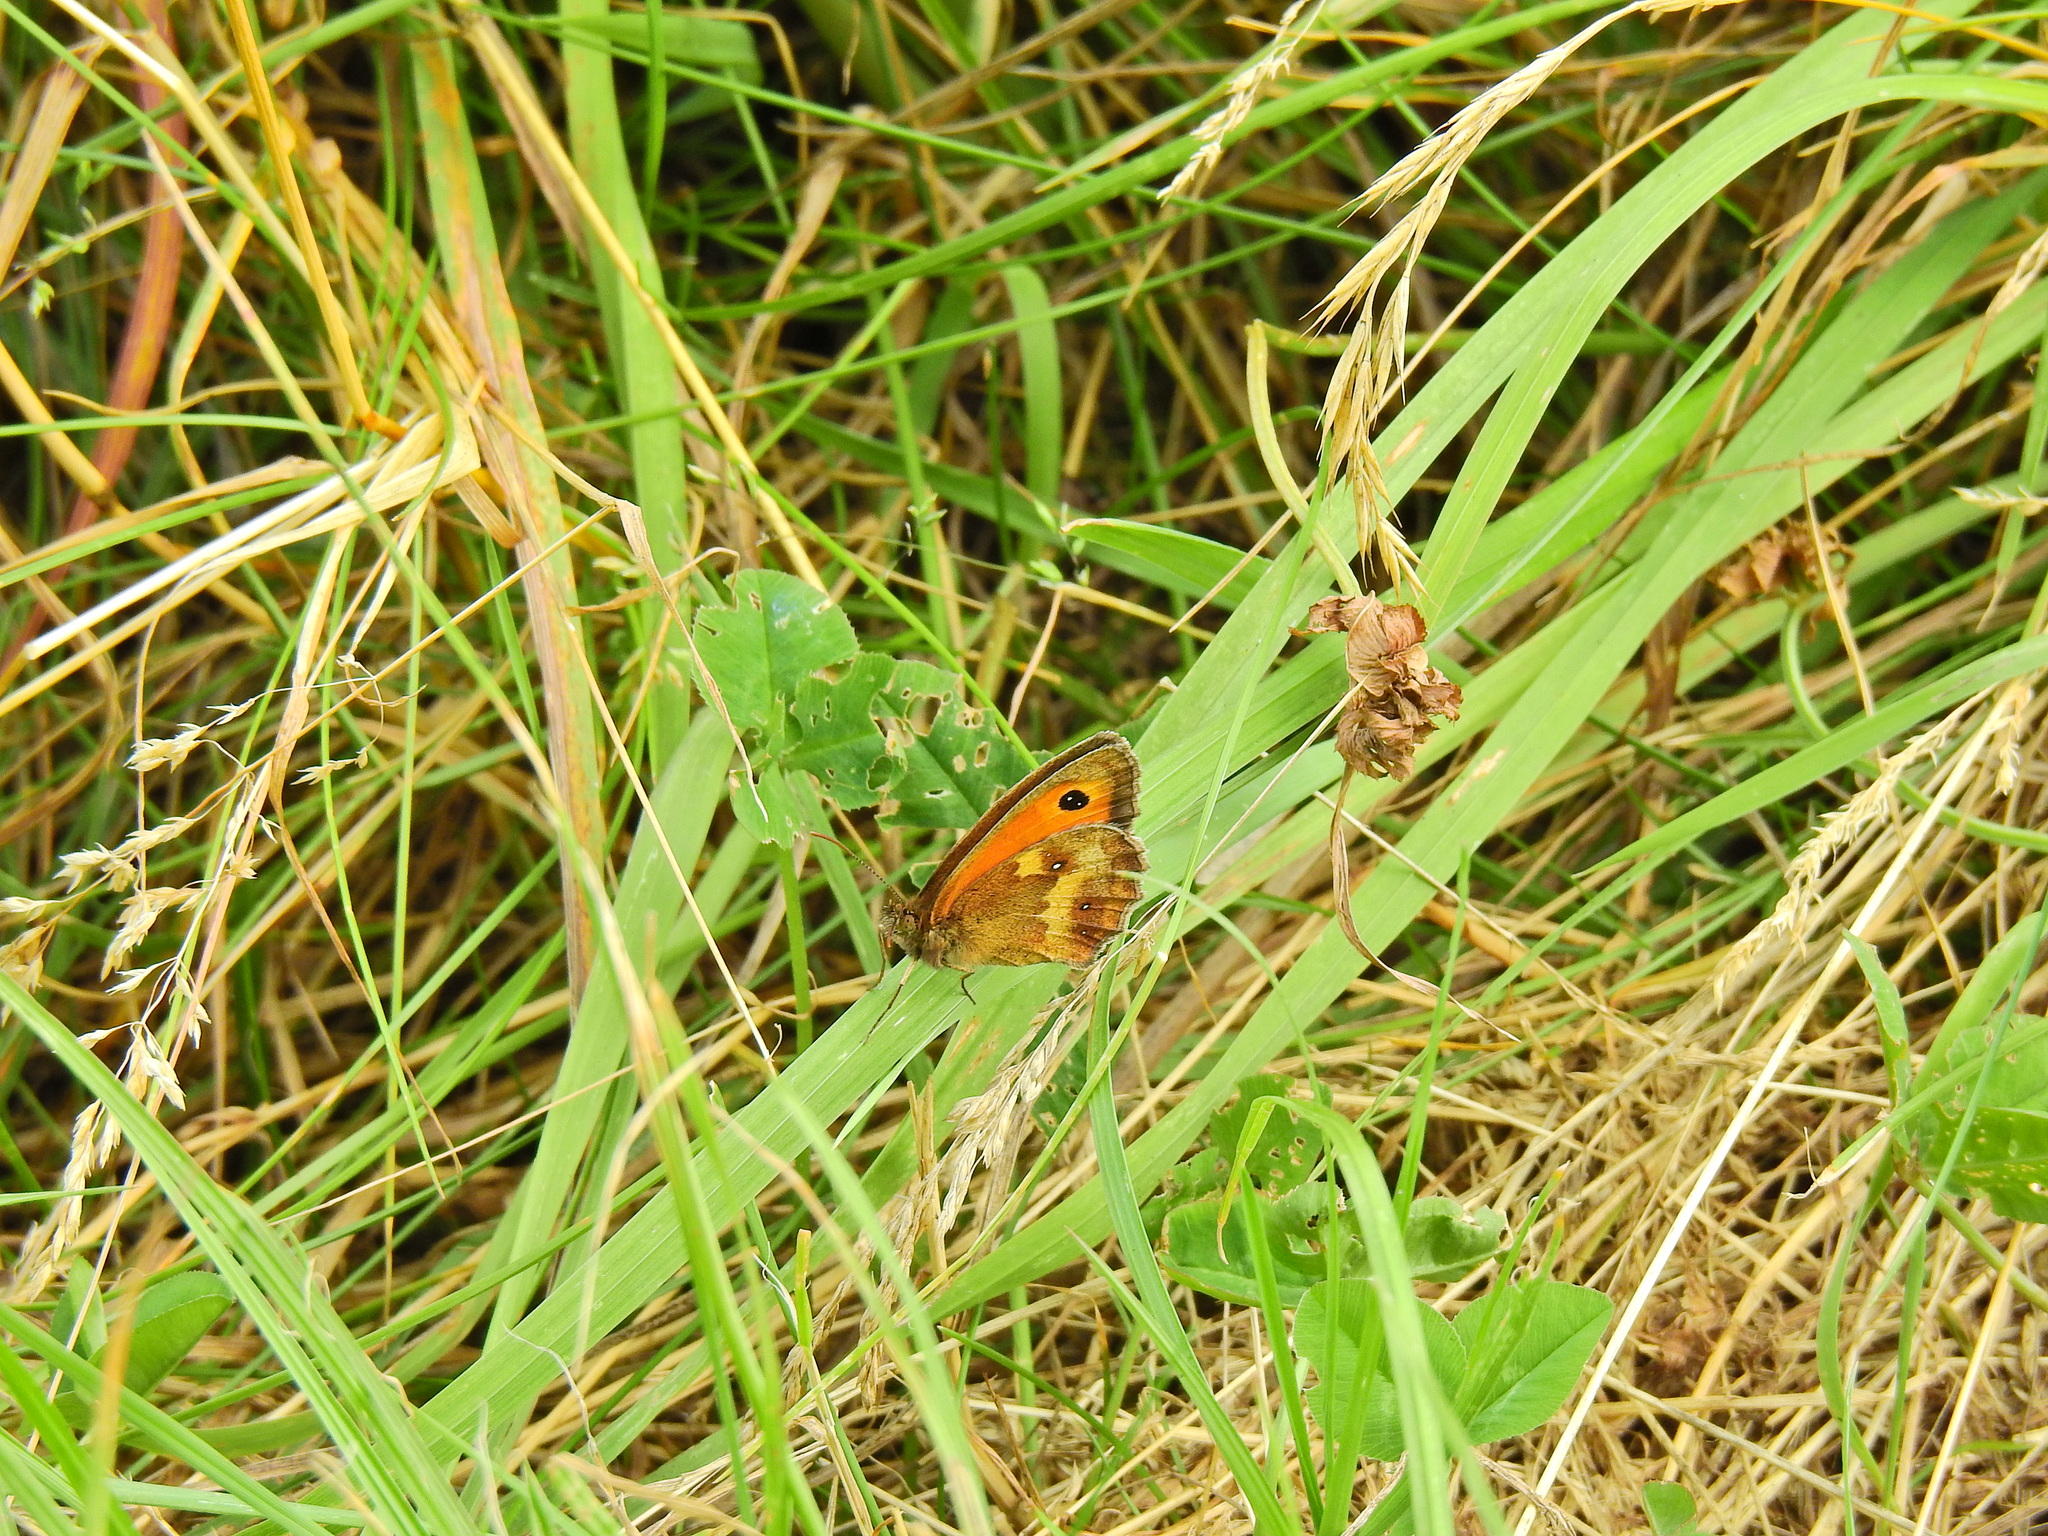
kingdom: Animalia
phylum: Arthropoda
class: Insecta
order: Lepidoptera
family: Nymphalidae
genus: Pyronia
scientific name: Pyronia tithonus
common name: Gatekeeper
